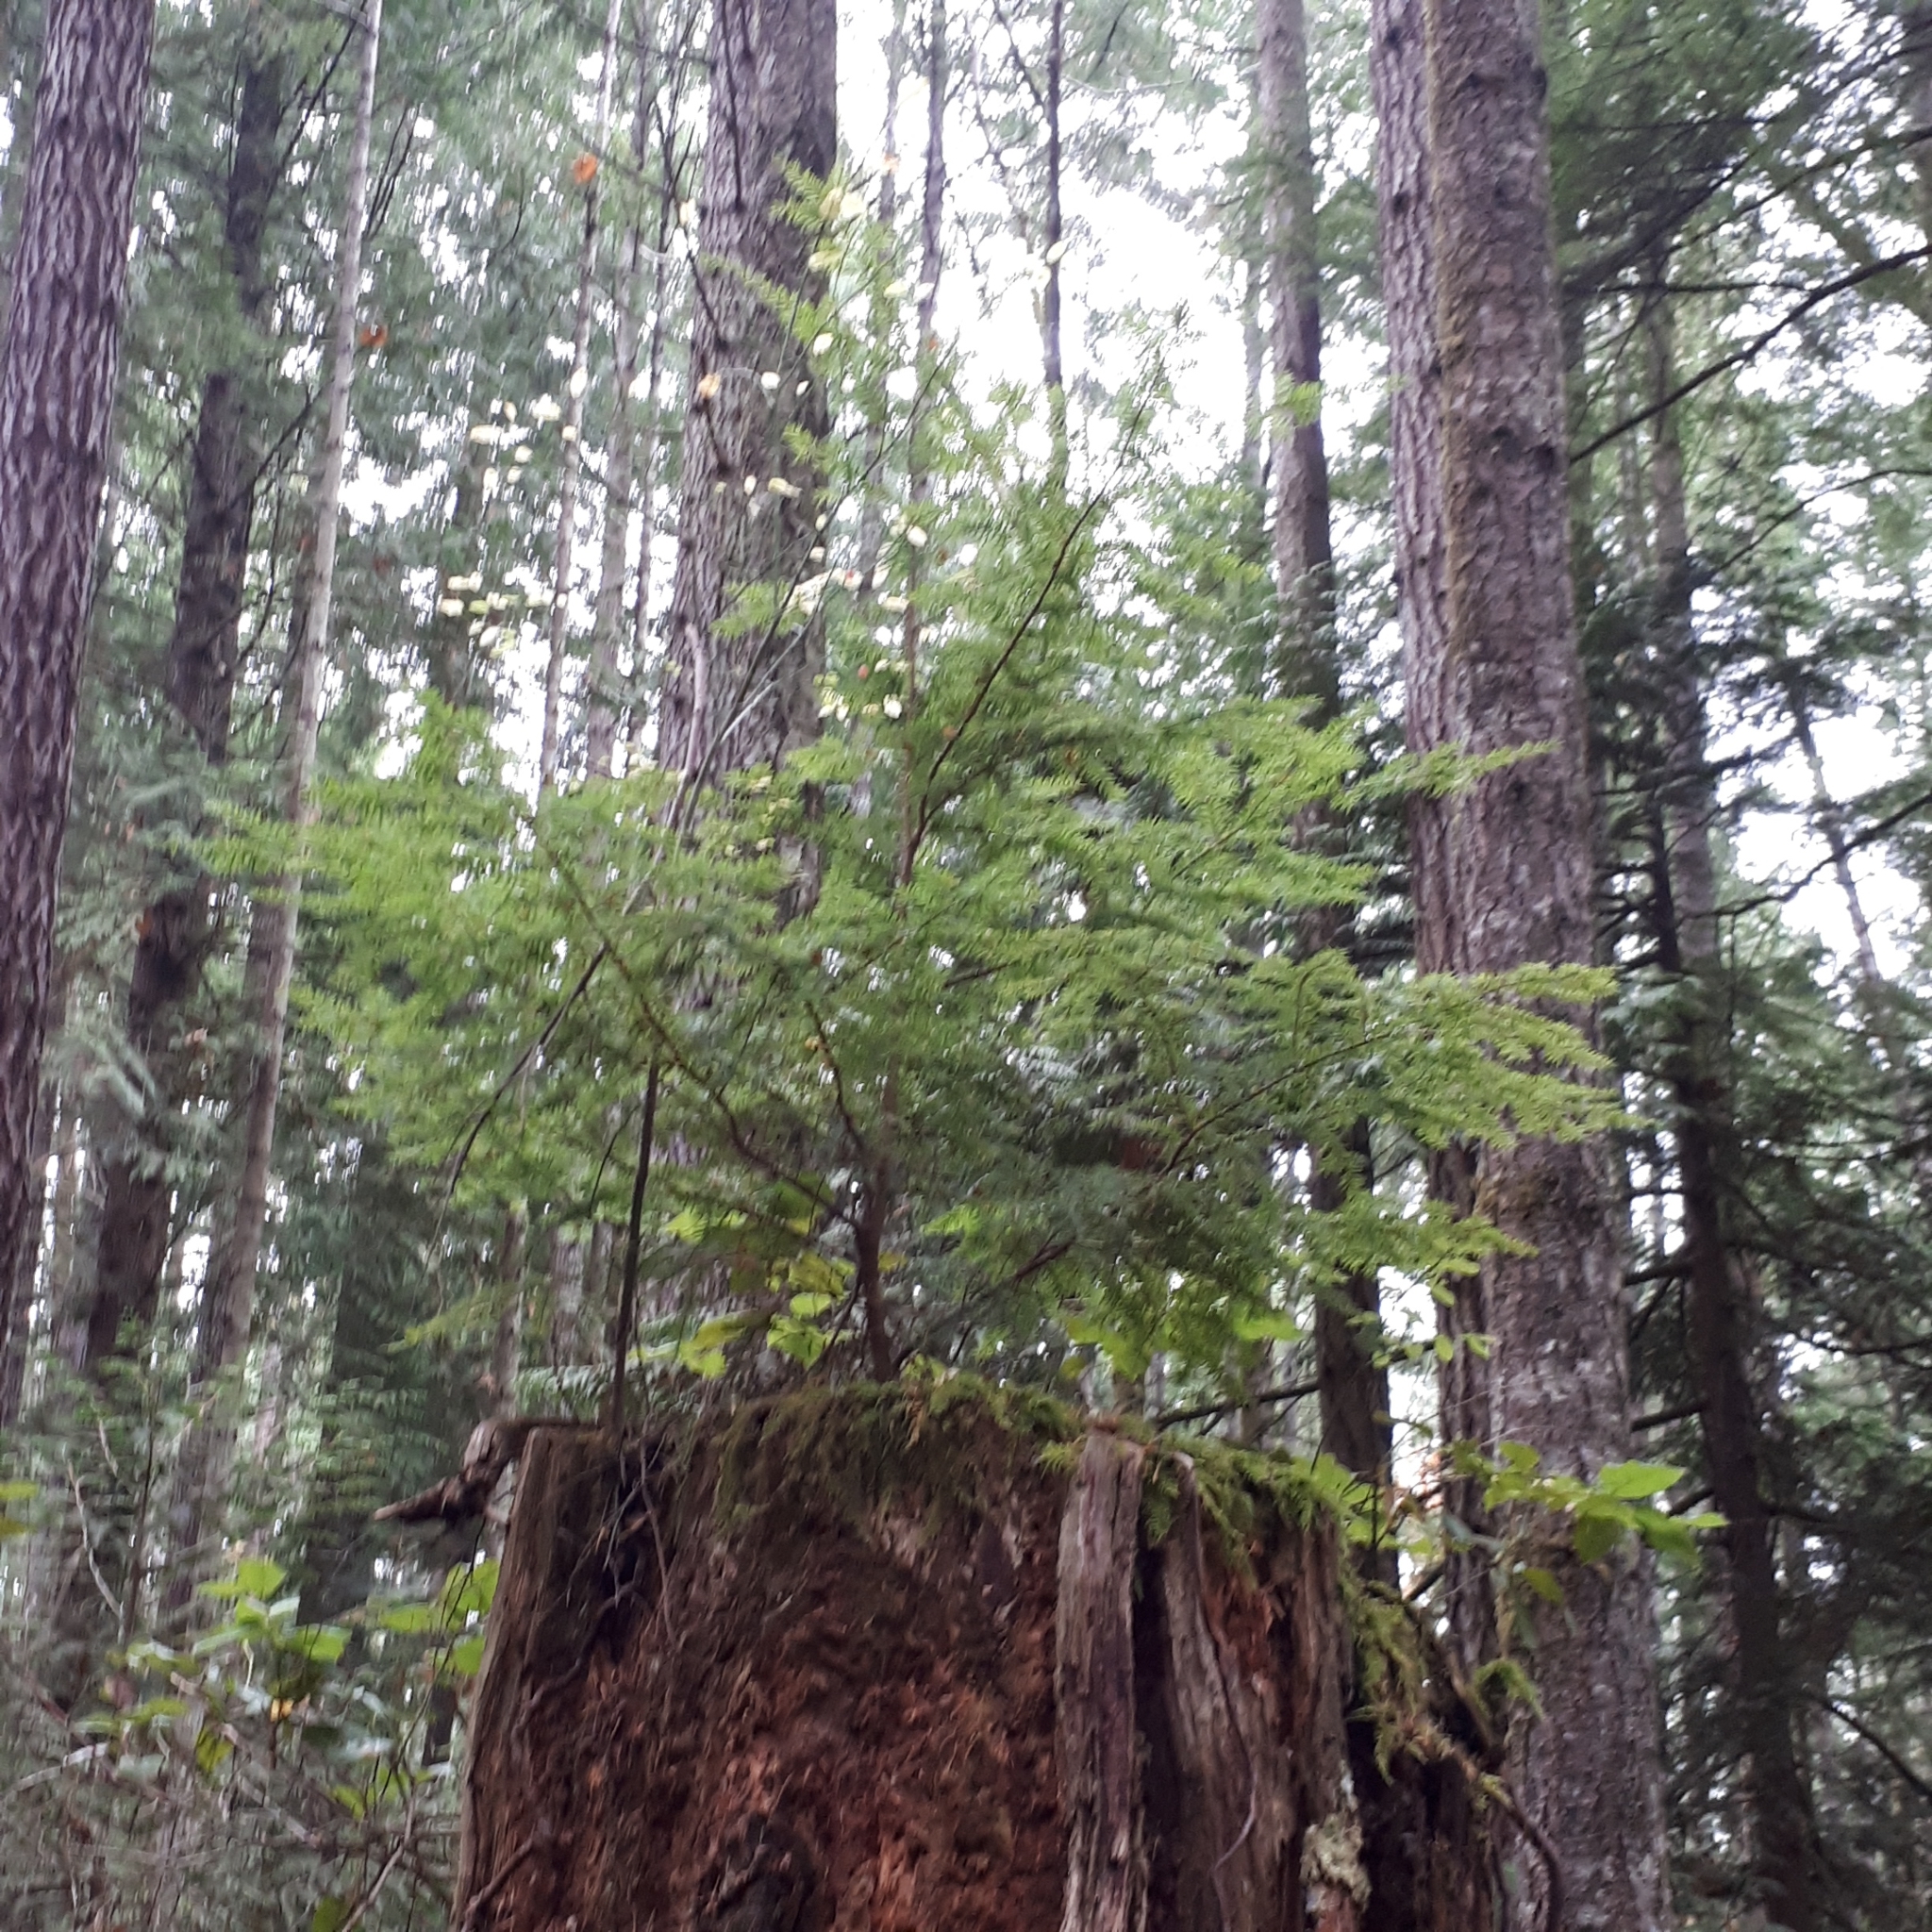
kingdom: Plantae
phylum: Tracheophyta
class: Pinopsida
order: Pinales
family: Pinaceae
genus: Tsuga
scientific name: Tsuga heterophylla
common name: Western hemlock
